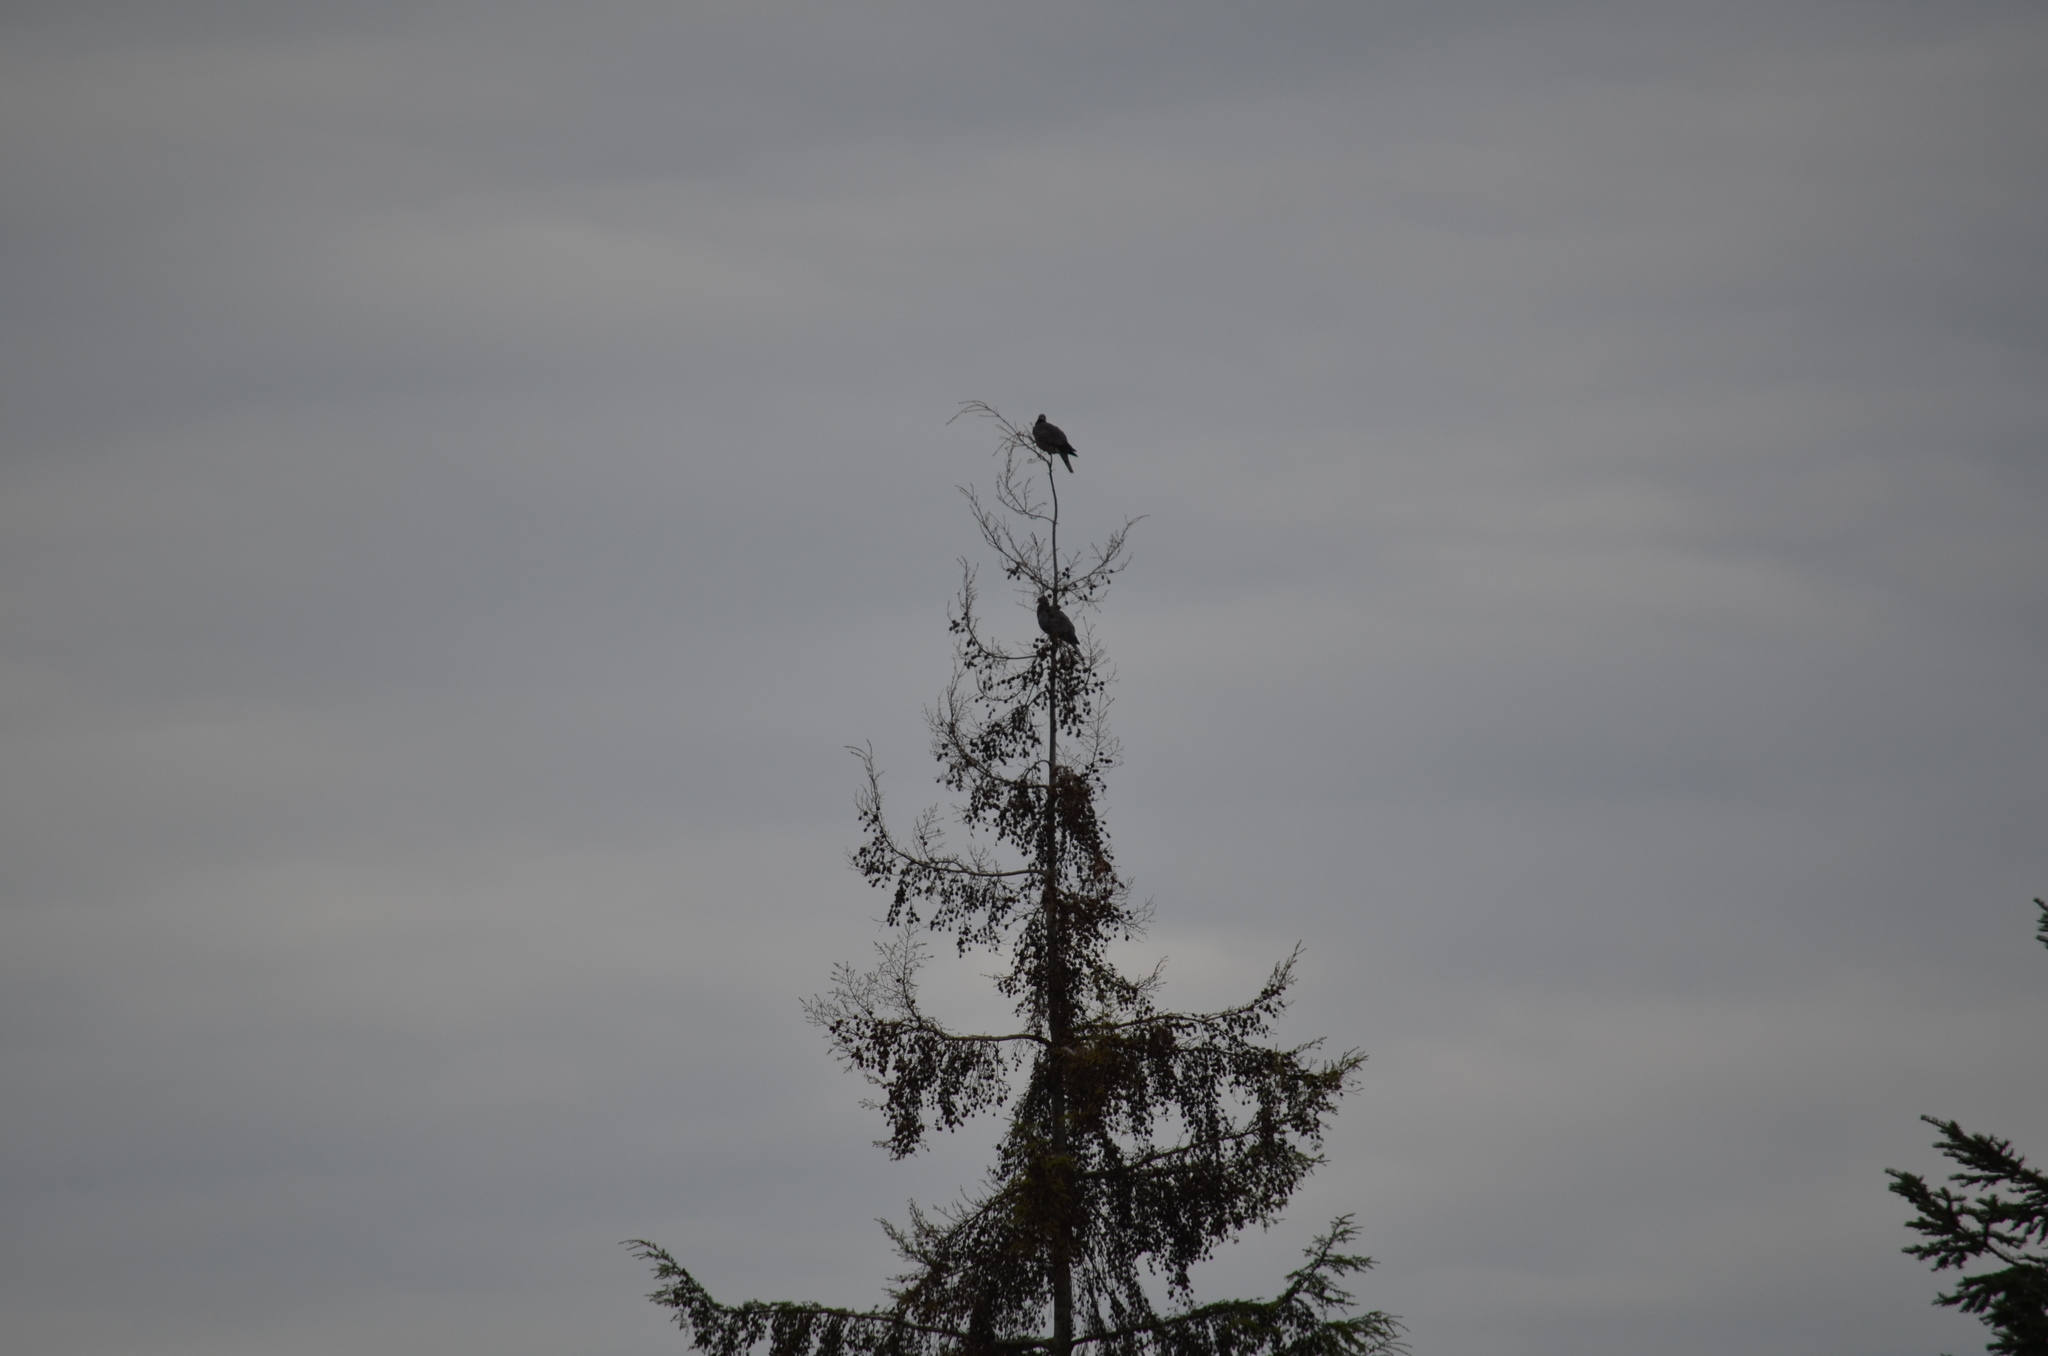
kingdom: Animalia
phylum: Chordata
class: Aves
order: Columbiformes
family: Columbidae
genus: Patagioenas
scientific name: Patagioenas fasciata
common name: Band-tailed pigeon
